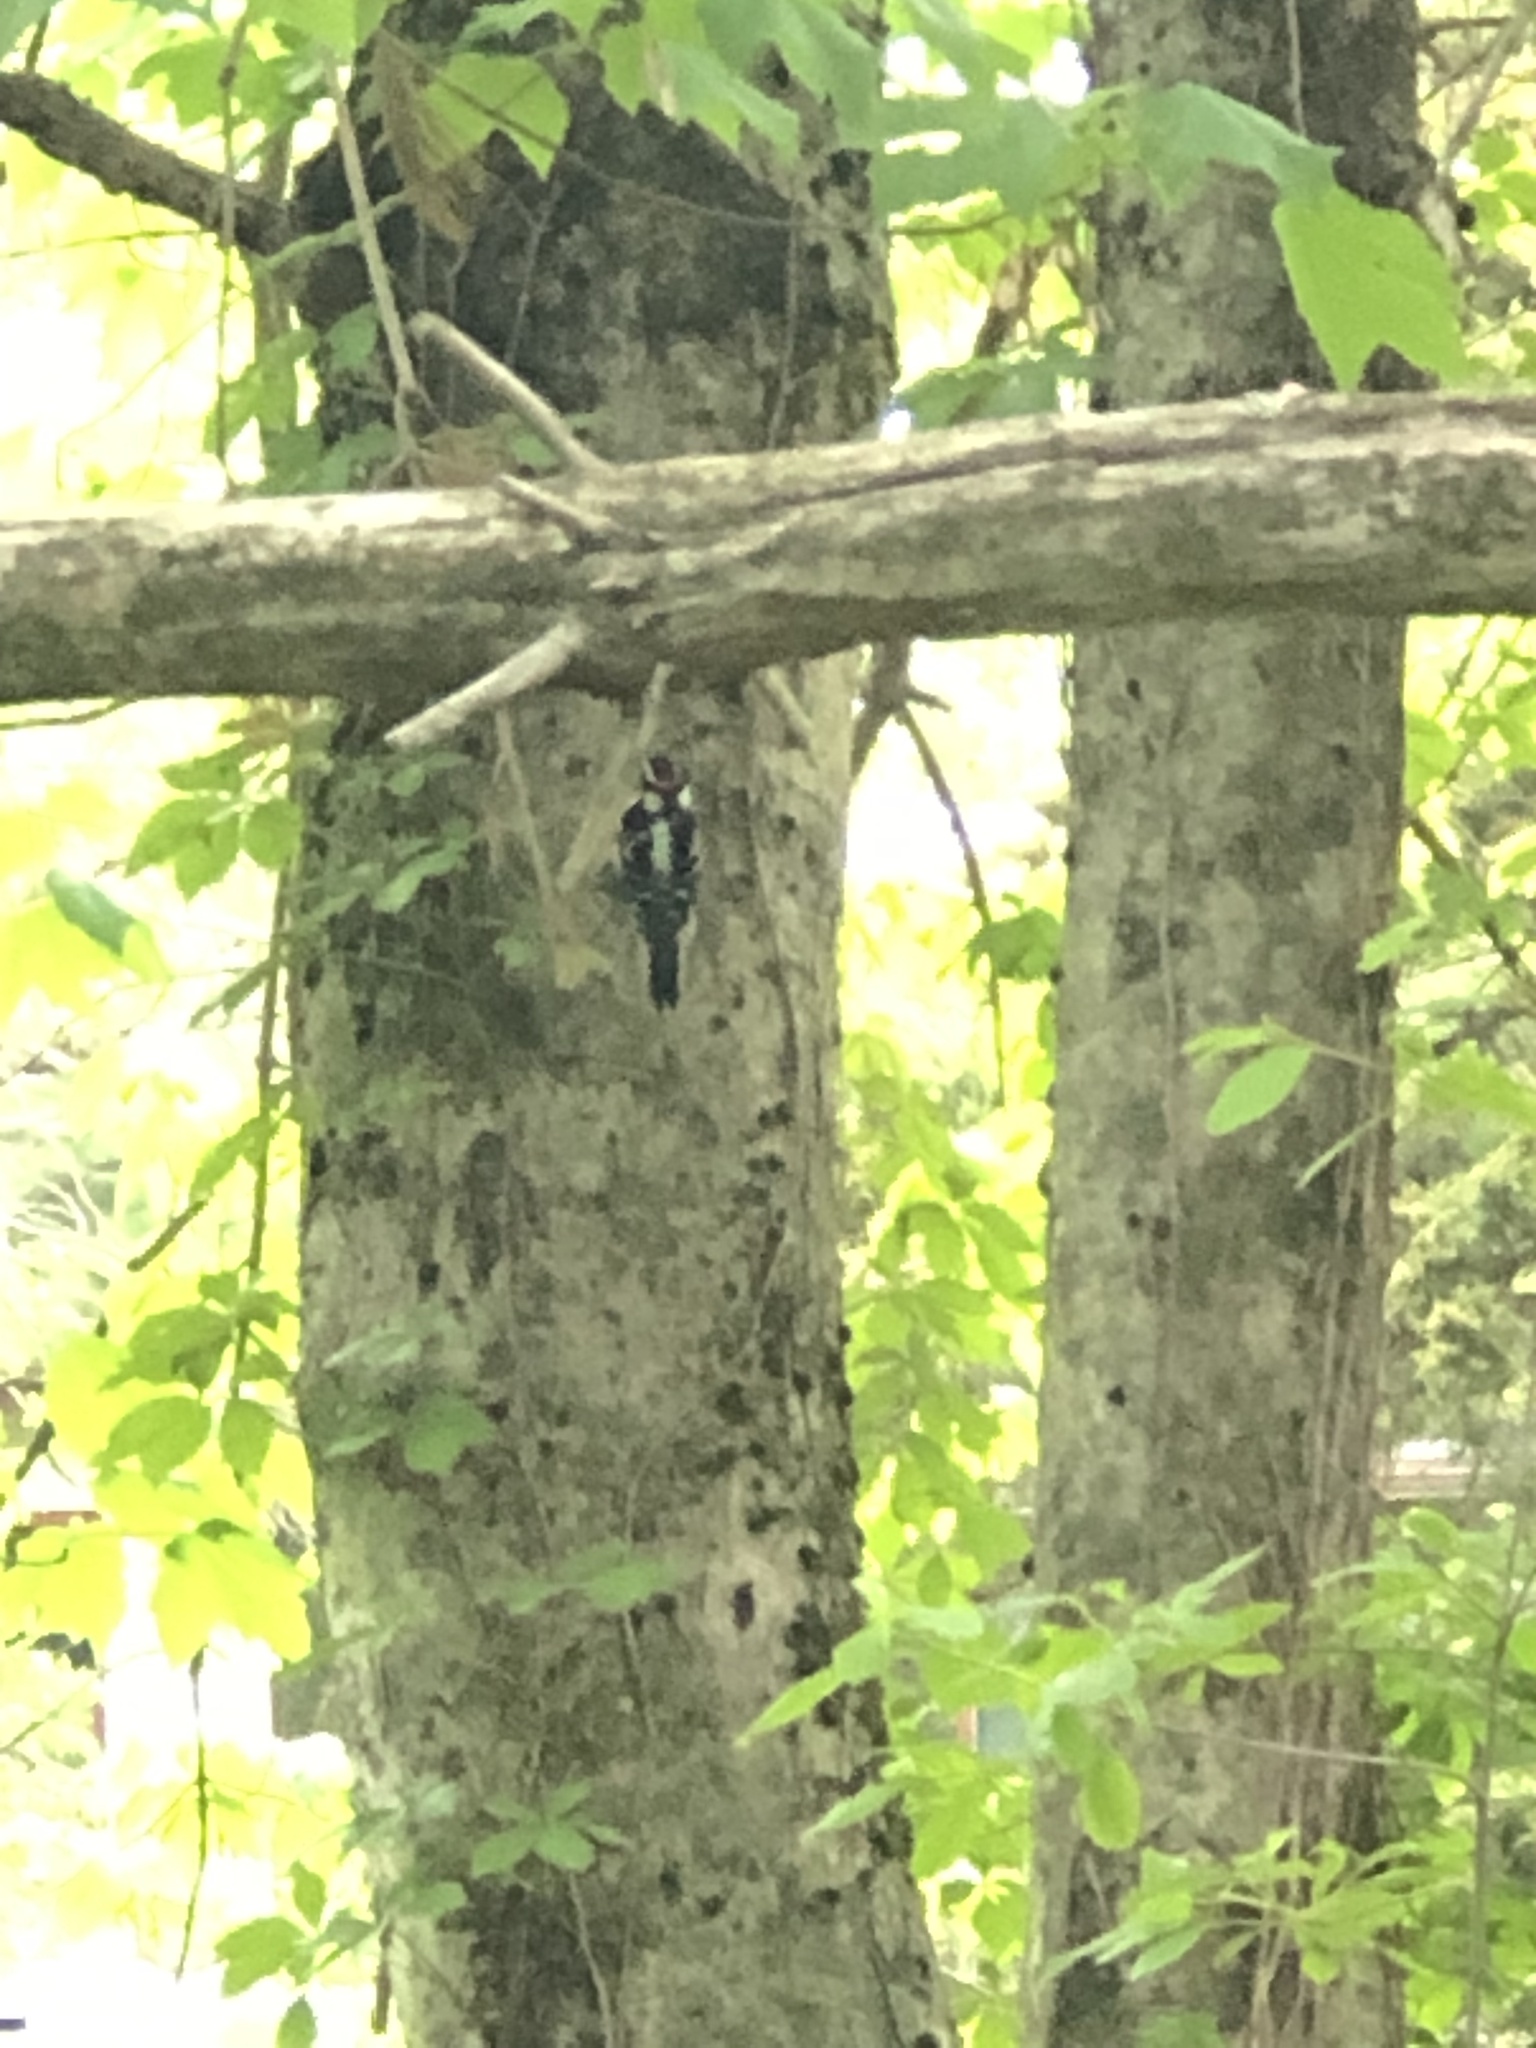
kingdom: Animalia
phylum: Chordata
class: Aves
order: Piciformes
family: Picidae
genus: Dryobates
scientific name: Dryobates pubescens
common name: Downy woodpecker
